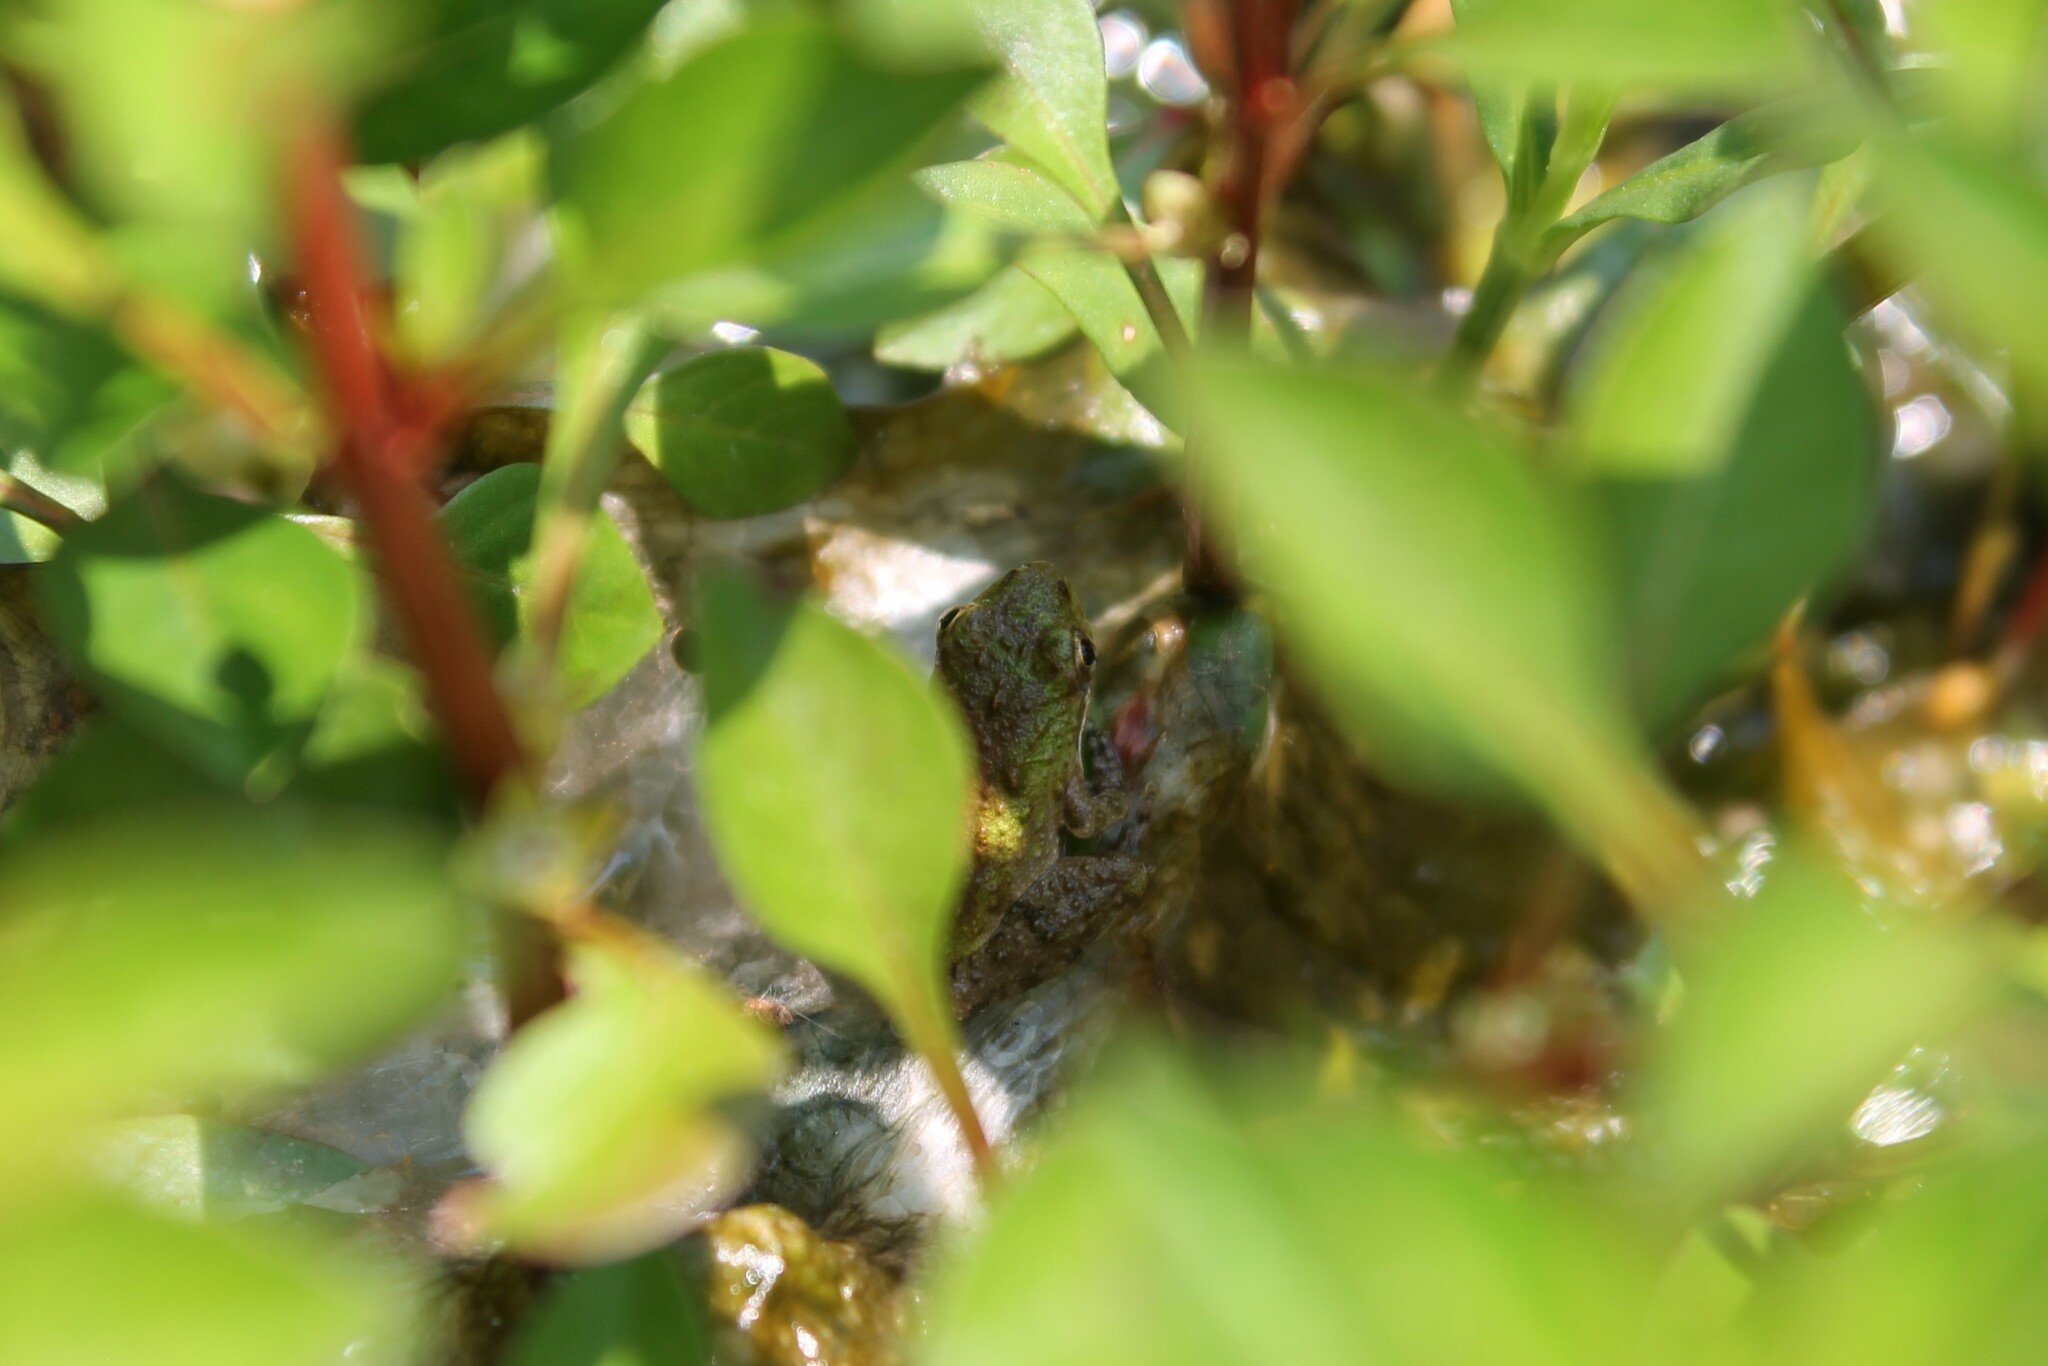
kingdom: Animalia
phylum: Chordata
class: Amphibia
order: Anura
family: Hylidae
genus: Acris
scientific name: Acris crepitans
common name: Northern cricket frog
